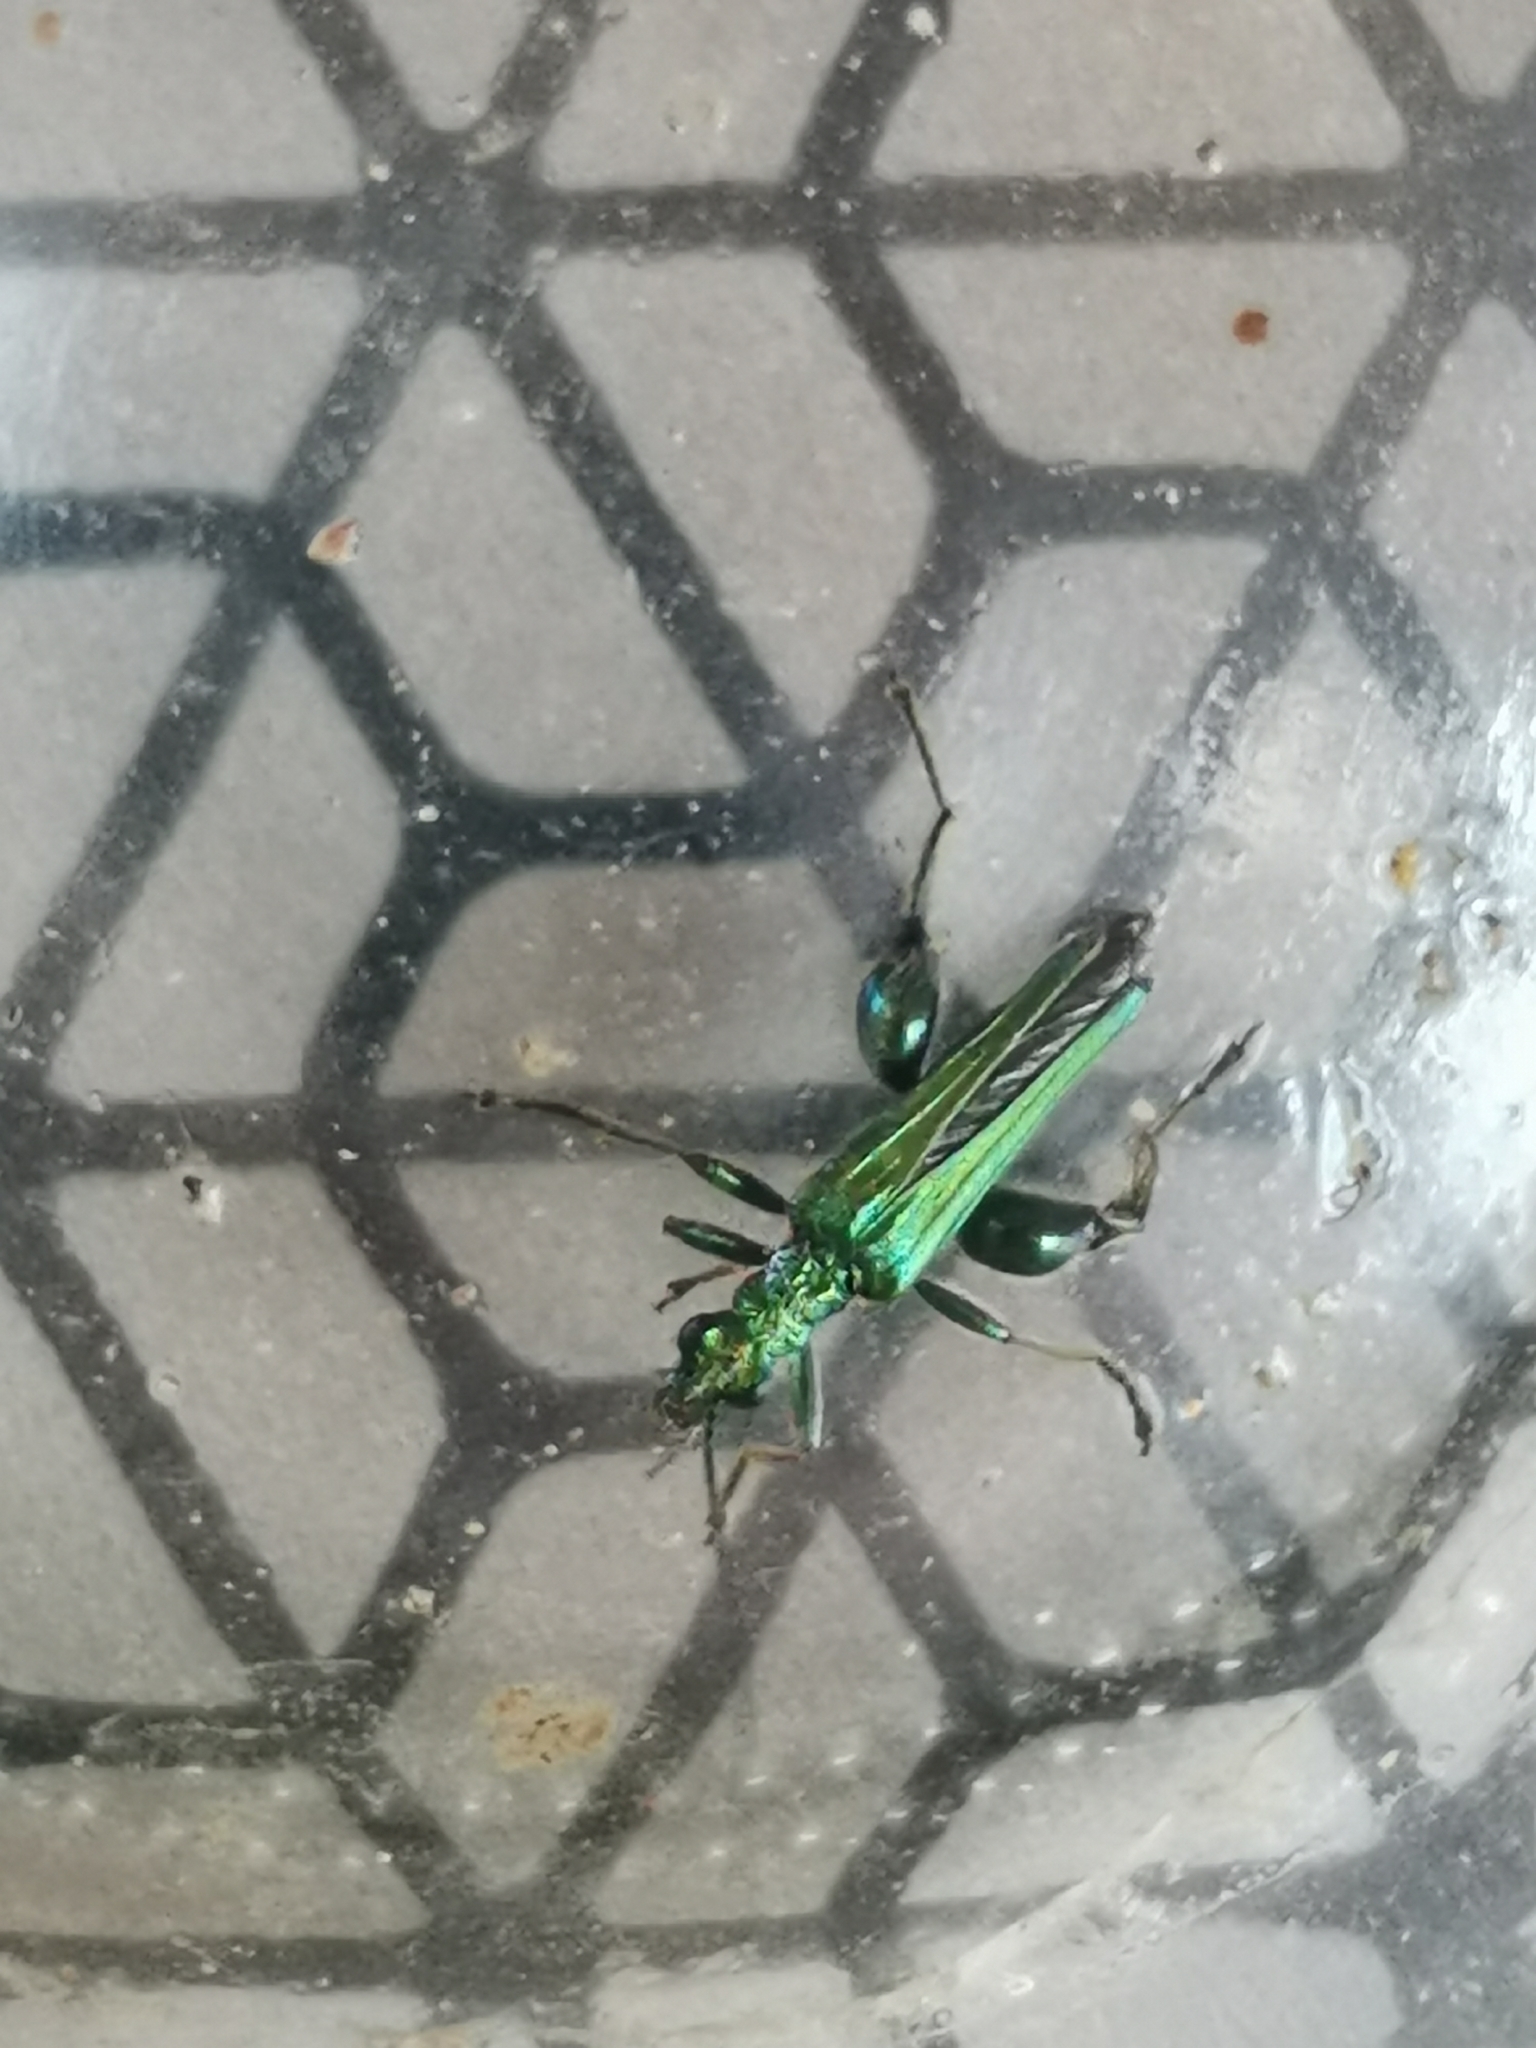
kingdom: Animalia
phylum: Arthropoda
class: Insecta
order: Coleoptera
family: Oedemeridae
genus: Oedemera
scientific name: Oedemera nobilis
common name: Swollen-thighed beetle
